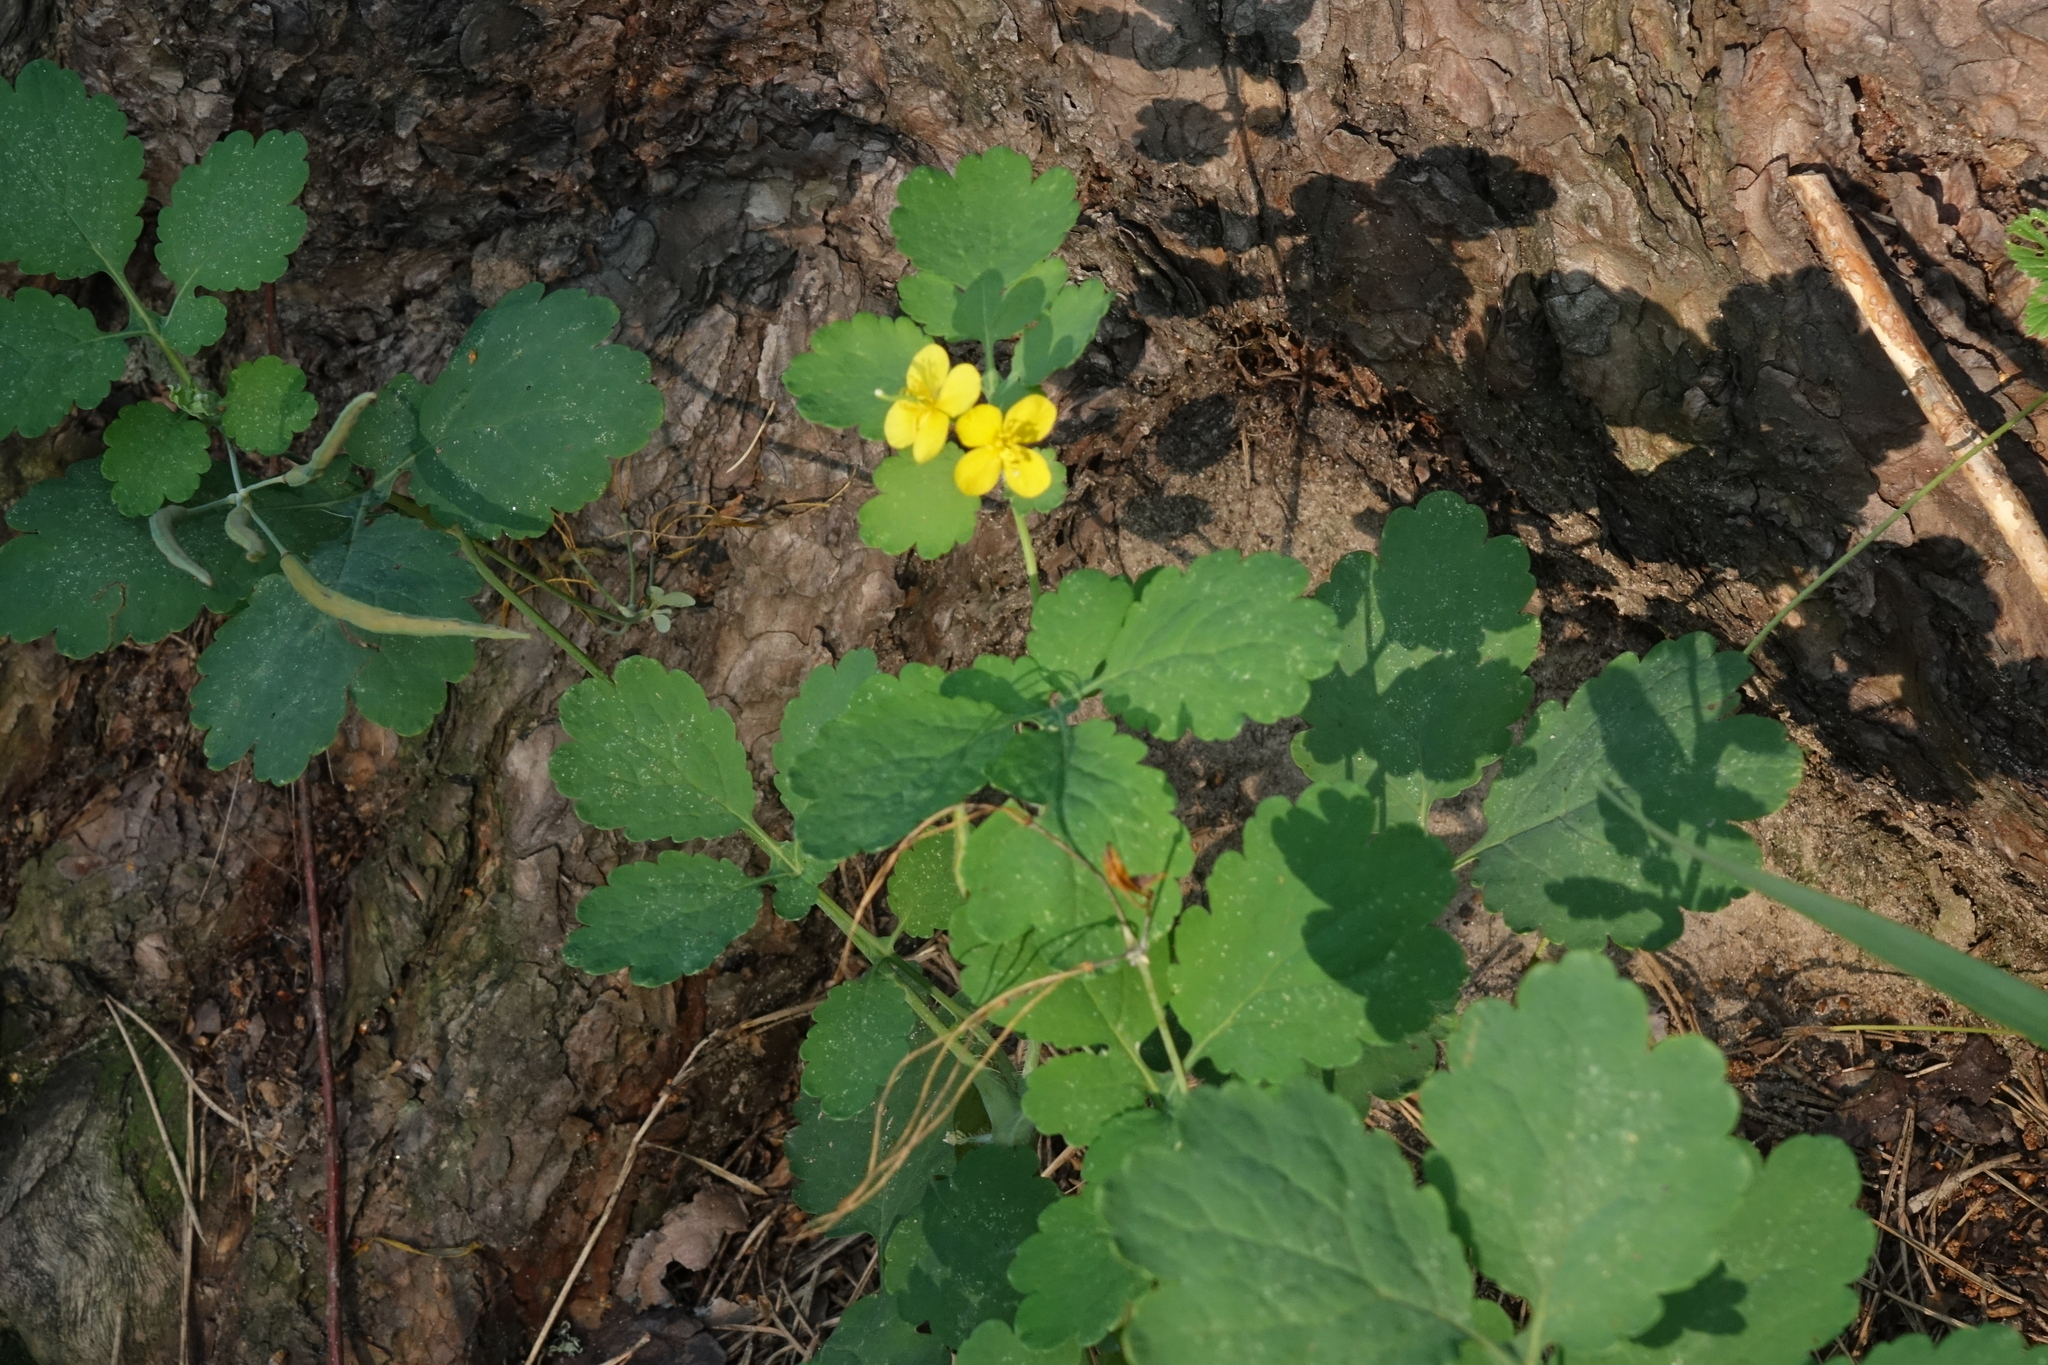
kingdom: Plantae
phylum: Tracheophyta
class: Magnoliopsida
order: Ranunculales
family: Papaveraceae
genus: Chelidonium
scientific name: Chelidonium majus
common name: Greater celandine
